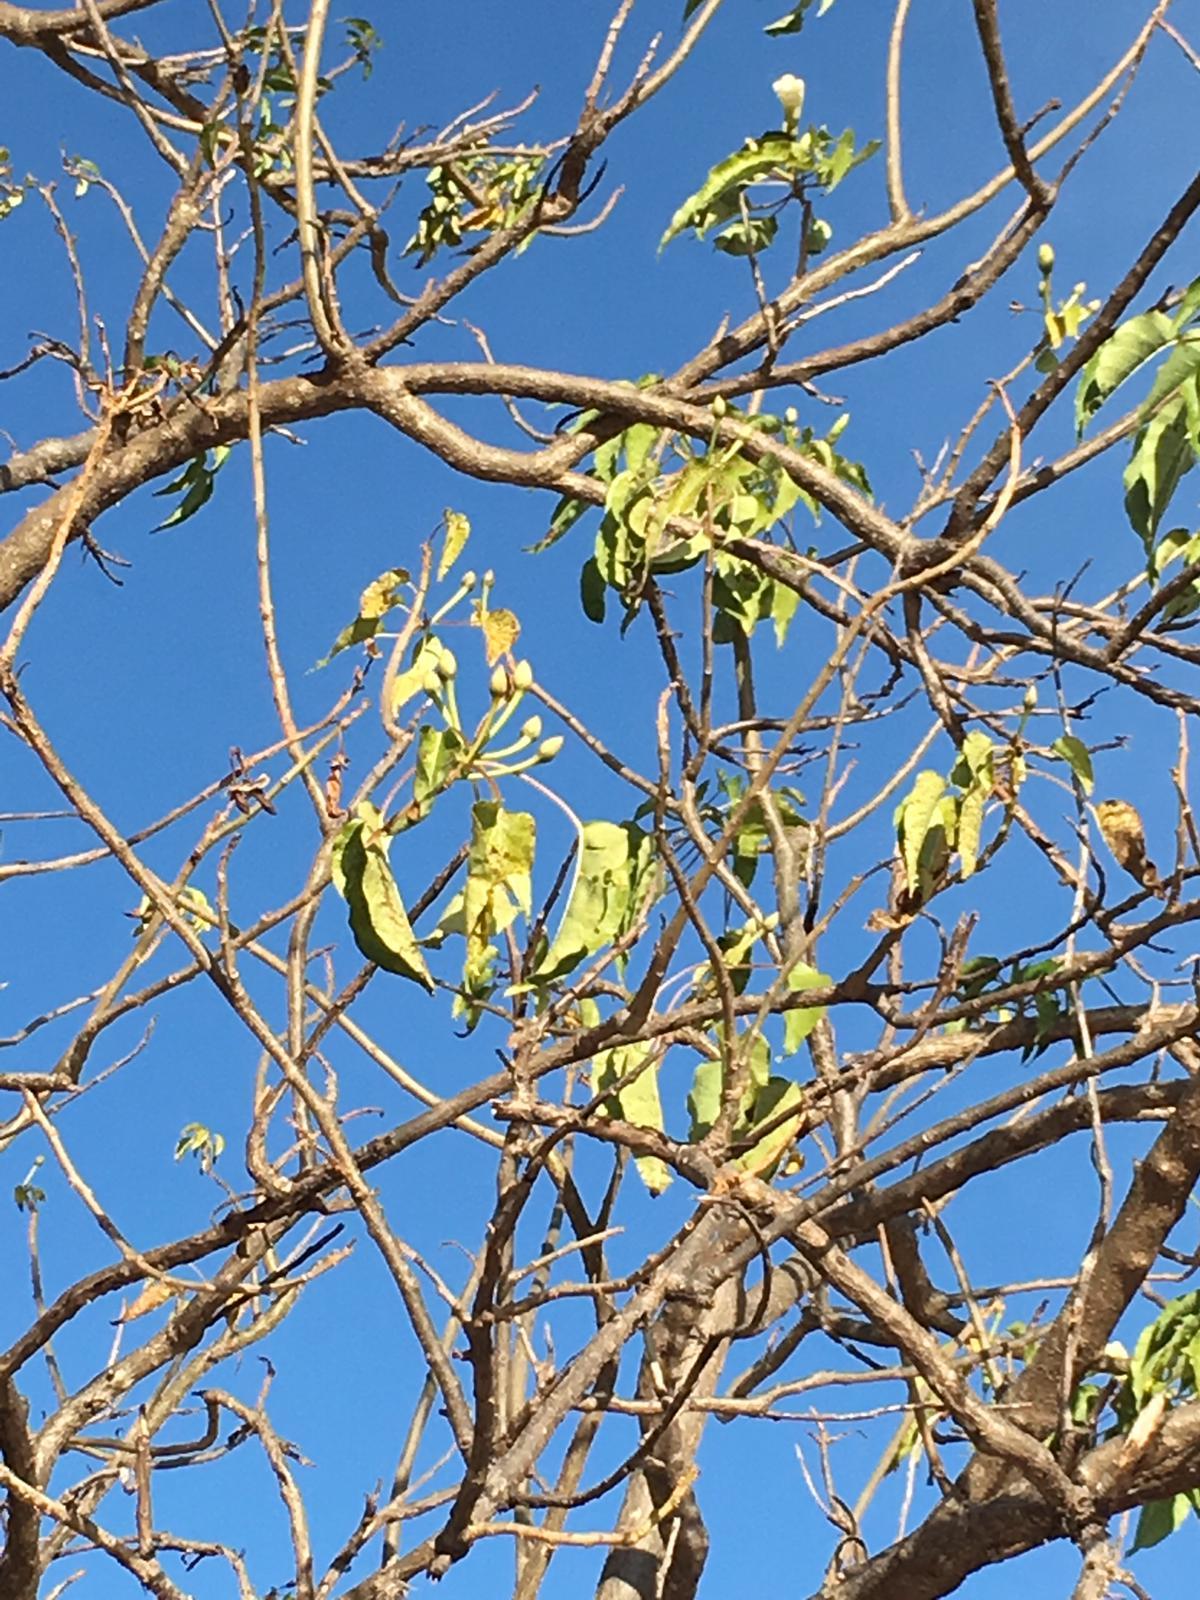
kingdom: Plantae
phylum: Tracheophyta
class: Magnoliopsida
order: Solanales
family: Convolvulaceae
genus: Ipomoea
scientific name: Ipomoea pauciflora
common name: Tree morningglory
